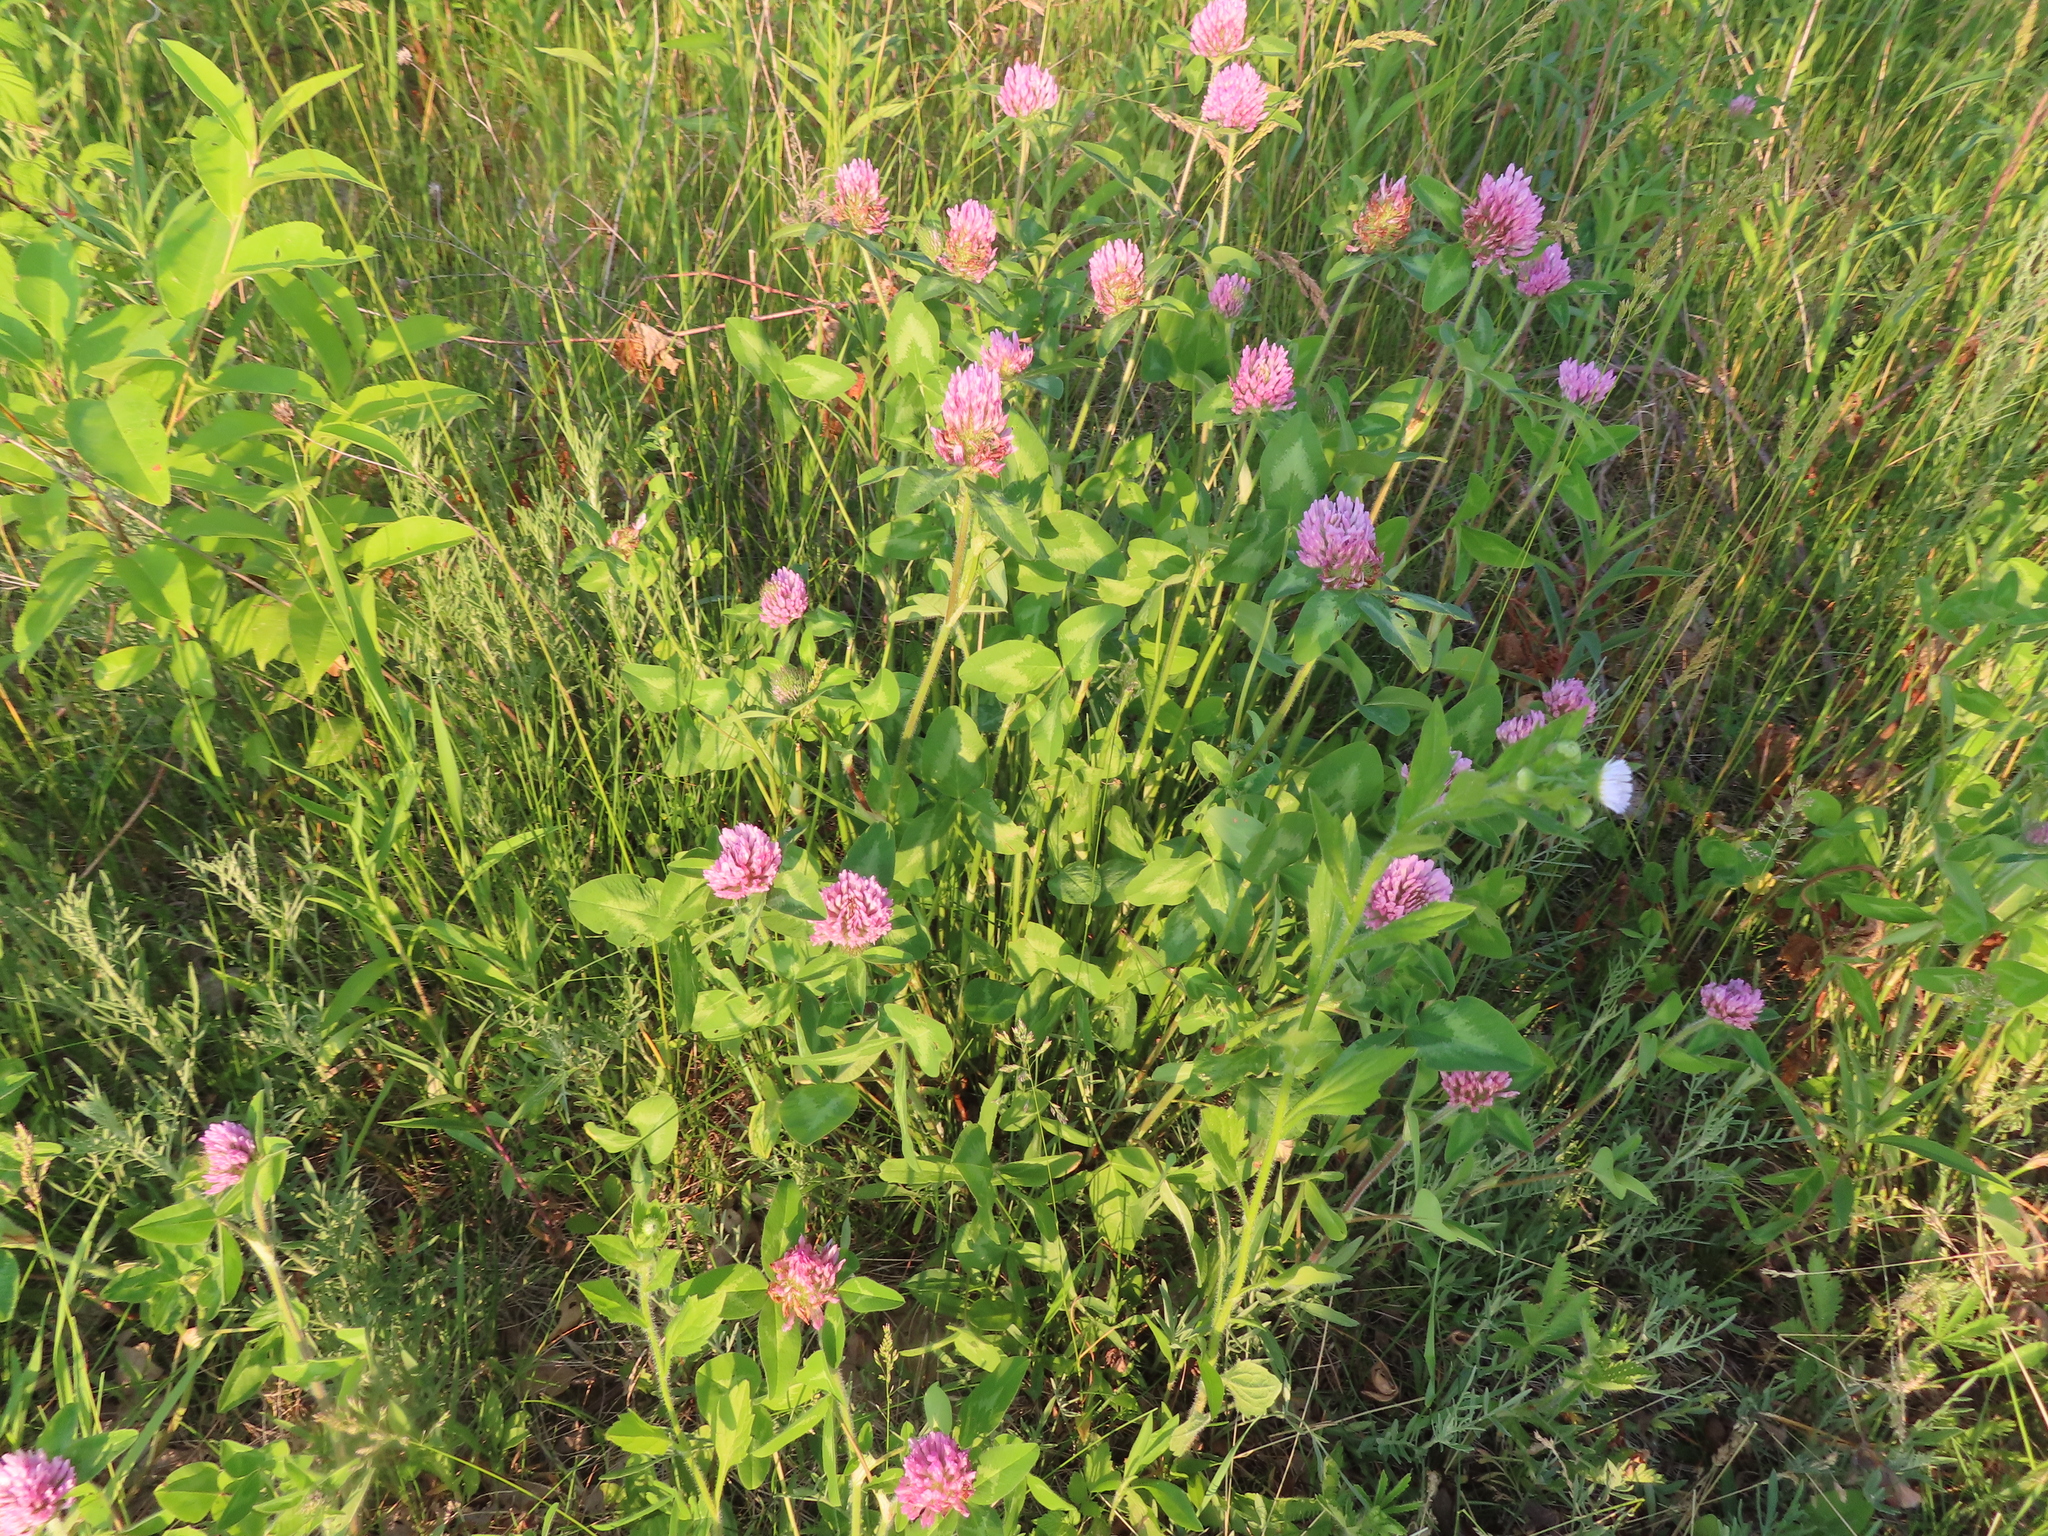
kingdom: Plantae
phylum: Tracheophyta
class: Magnoliopsida
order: Fabales
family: Fabaceae
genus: Trifolium
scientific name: Trifolium pratense
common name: Red clover
